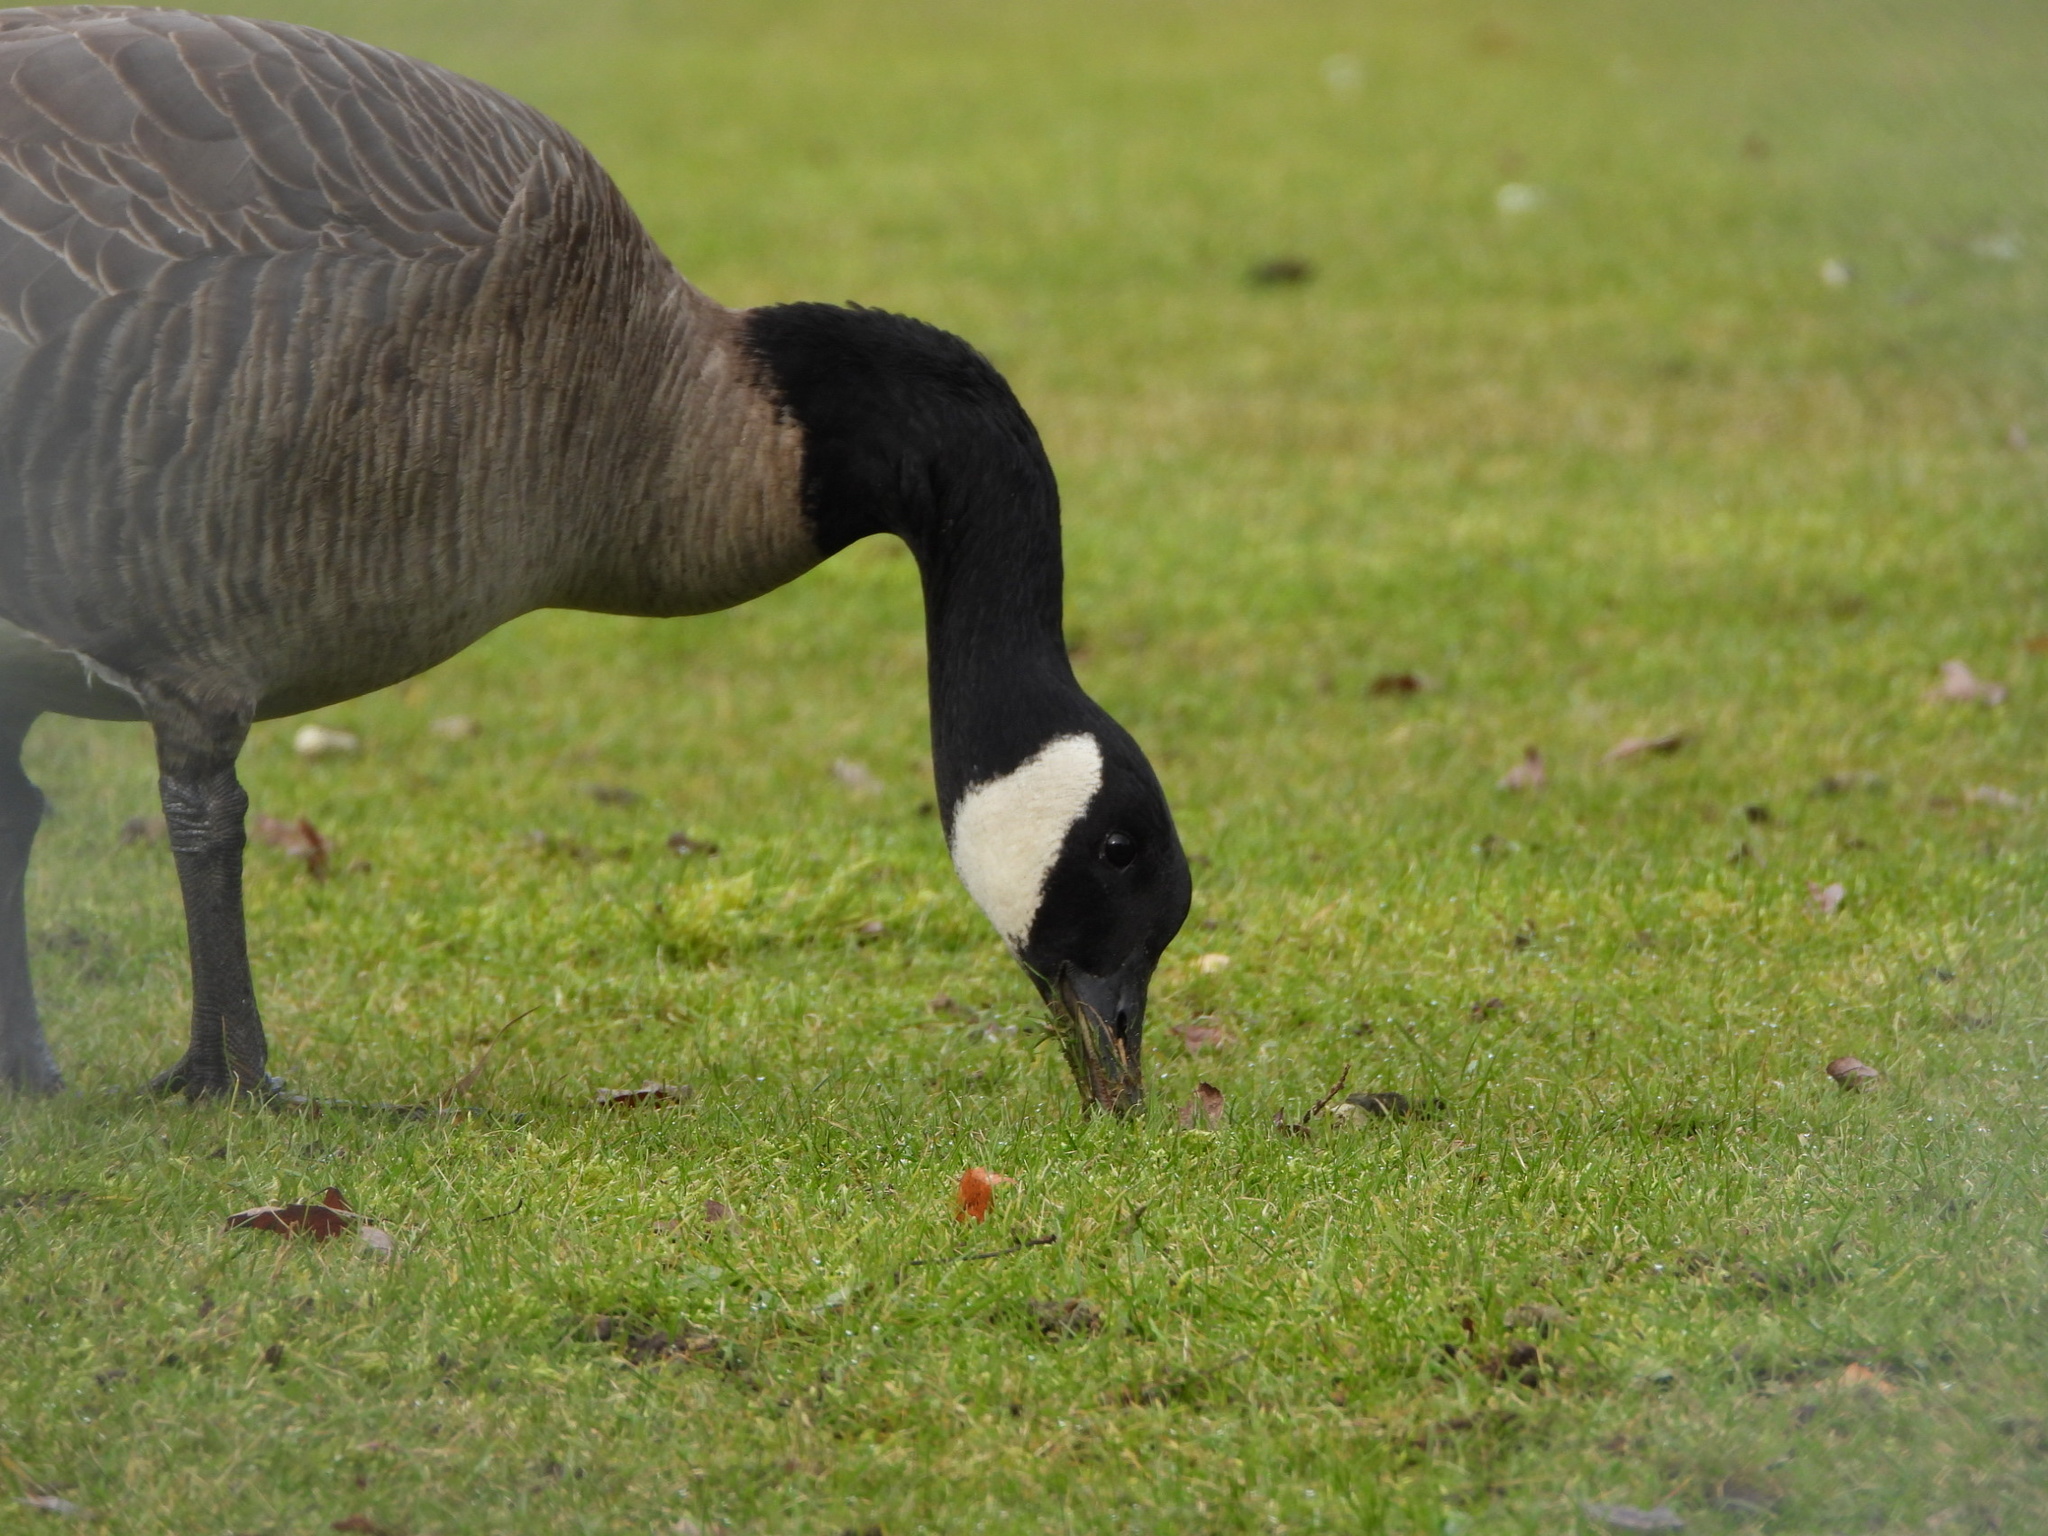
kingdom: Animalia
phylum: Chordata
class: Aves
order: Anseriformes
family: Anatidae
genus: Branta
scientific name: Branta canadensis
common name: Canada goose
